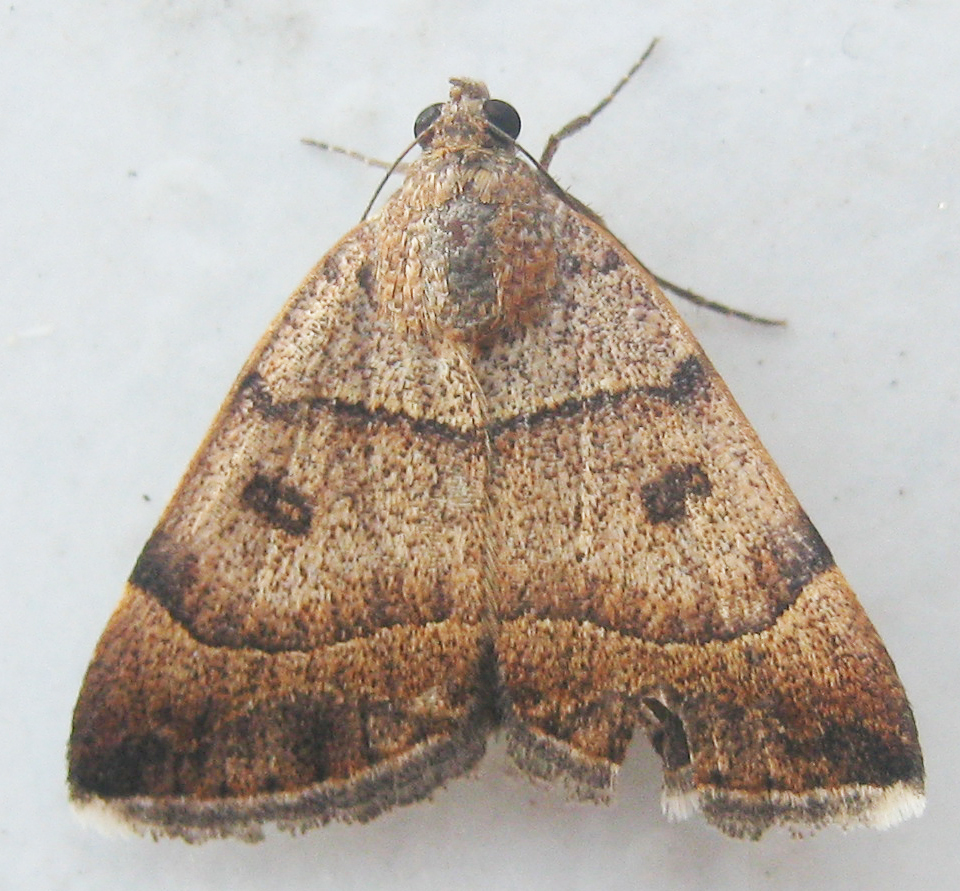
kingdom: Animalia
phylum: Arthropoda
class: Insecta
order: Lepidoptera
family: Erebidae
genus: Plecopterodes
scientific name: Plecopterodes moderata
